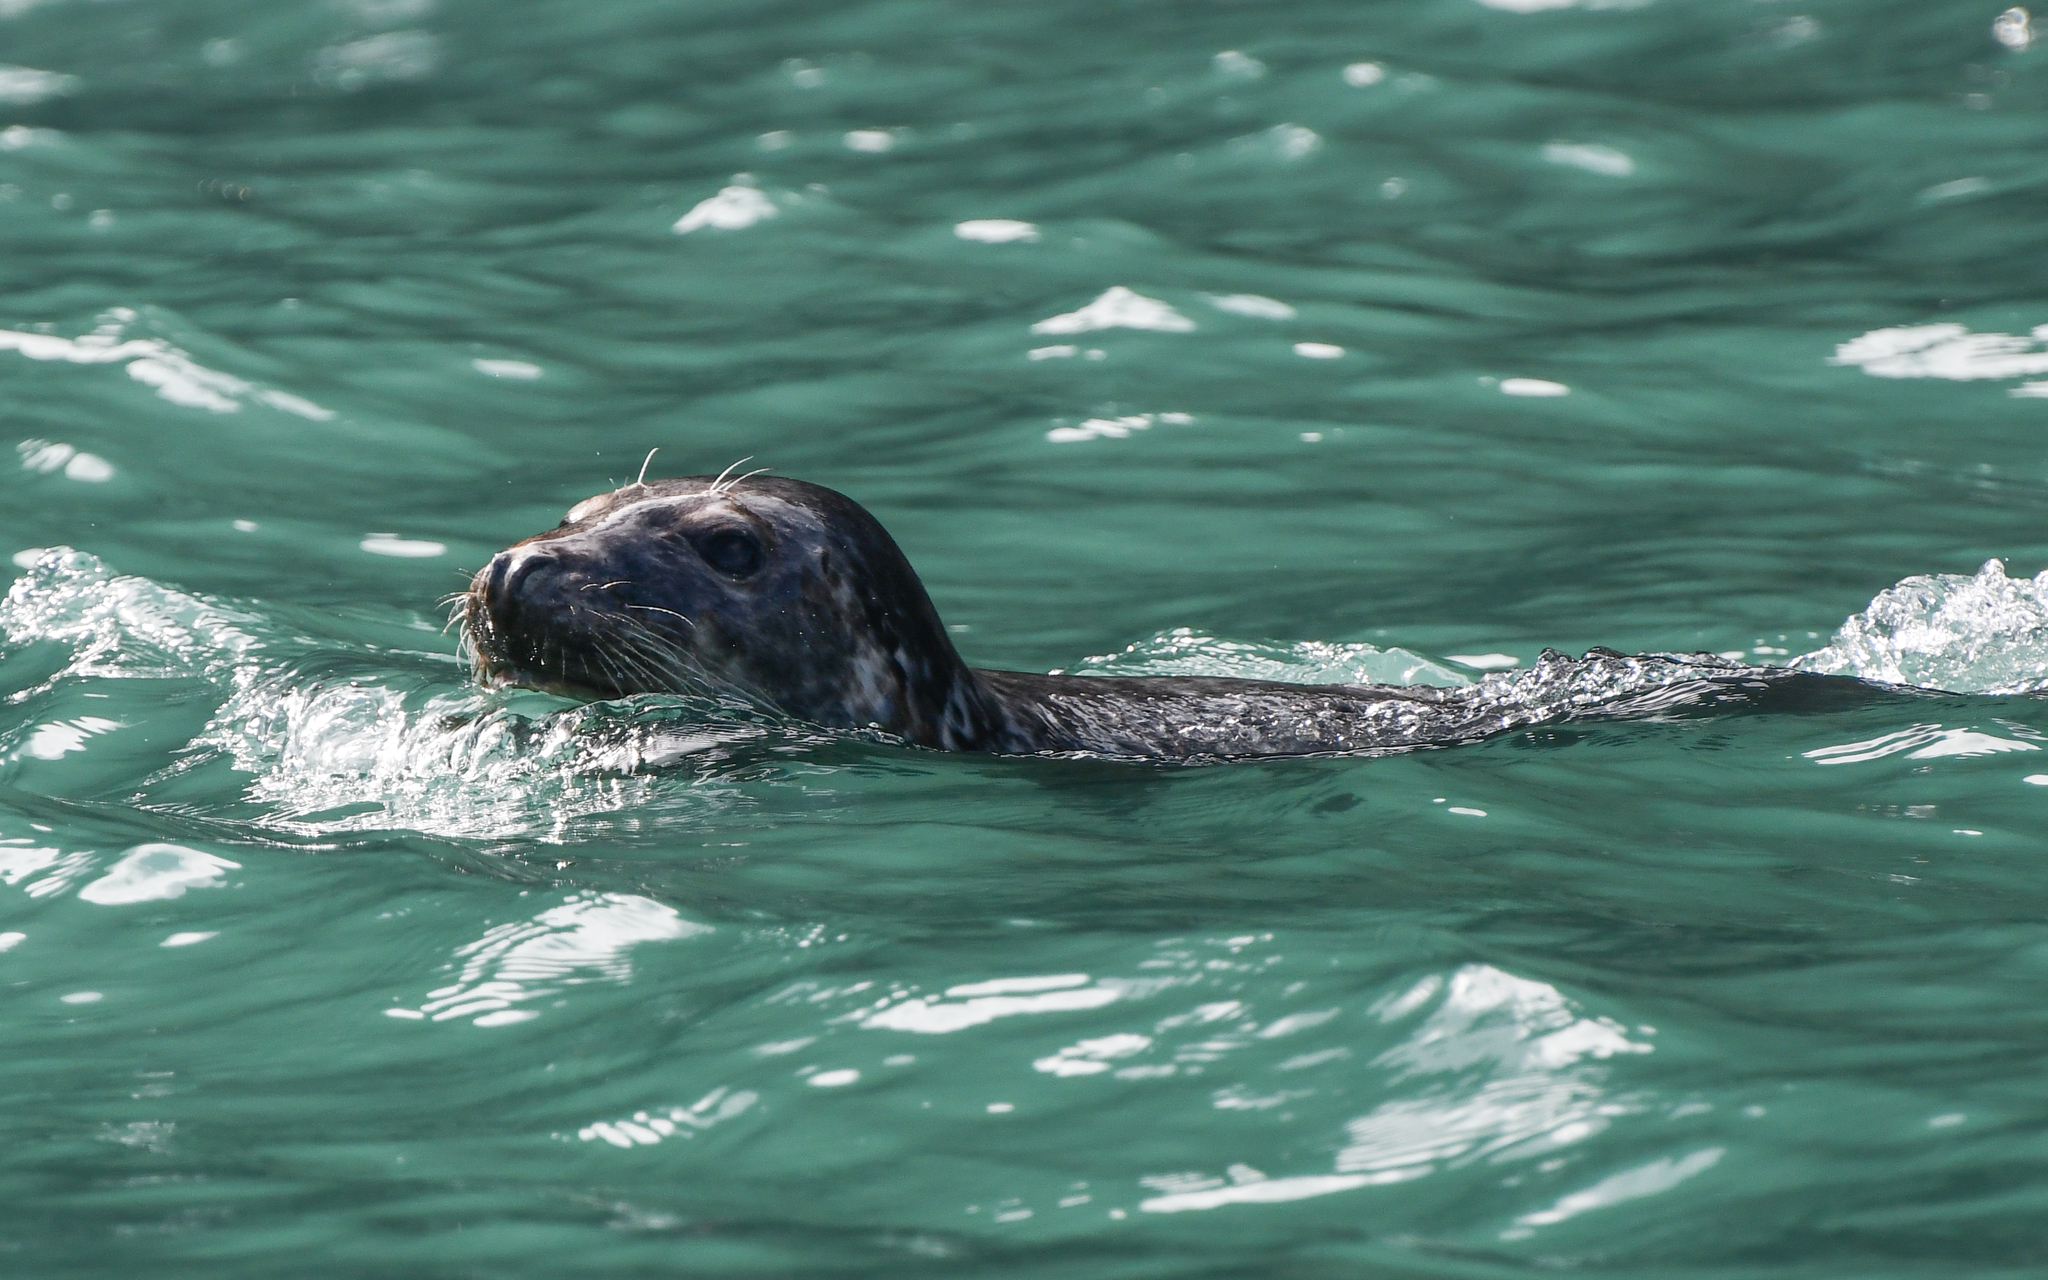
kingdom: Animalia
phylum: Chordata
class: Mammalia
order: Carnivora
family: Phocidae
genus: Halichoerus
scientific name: Halichoerus grypus
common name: Grey seal
